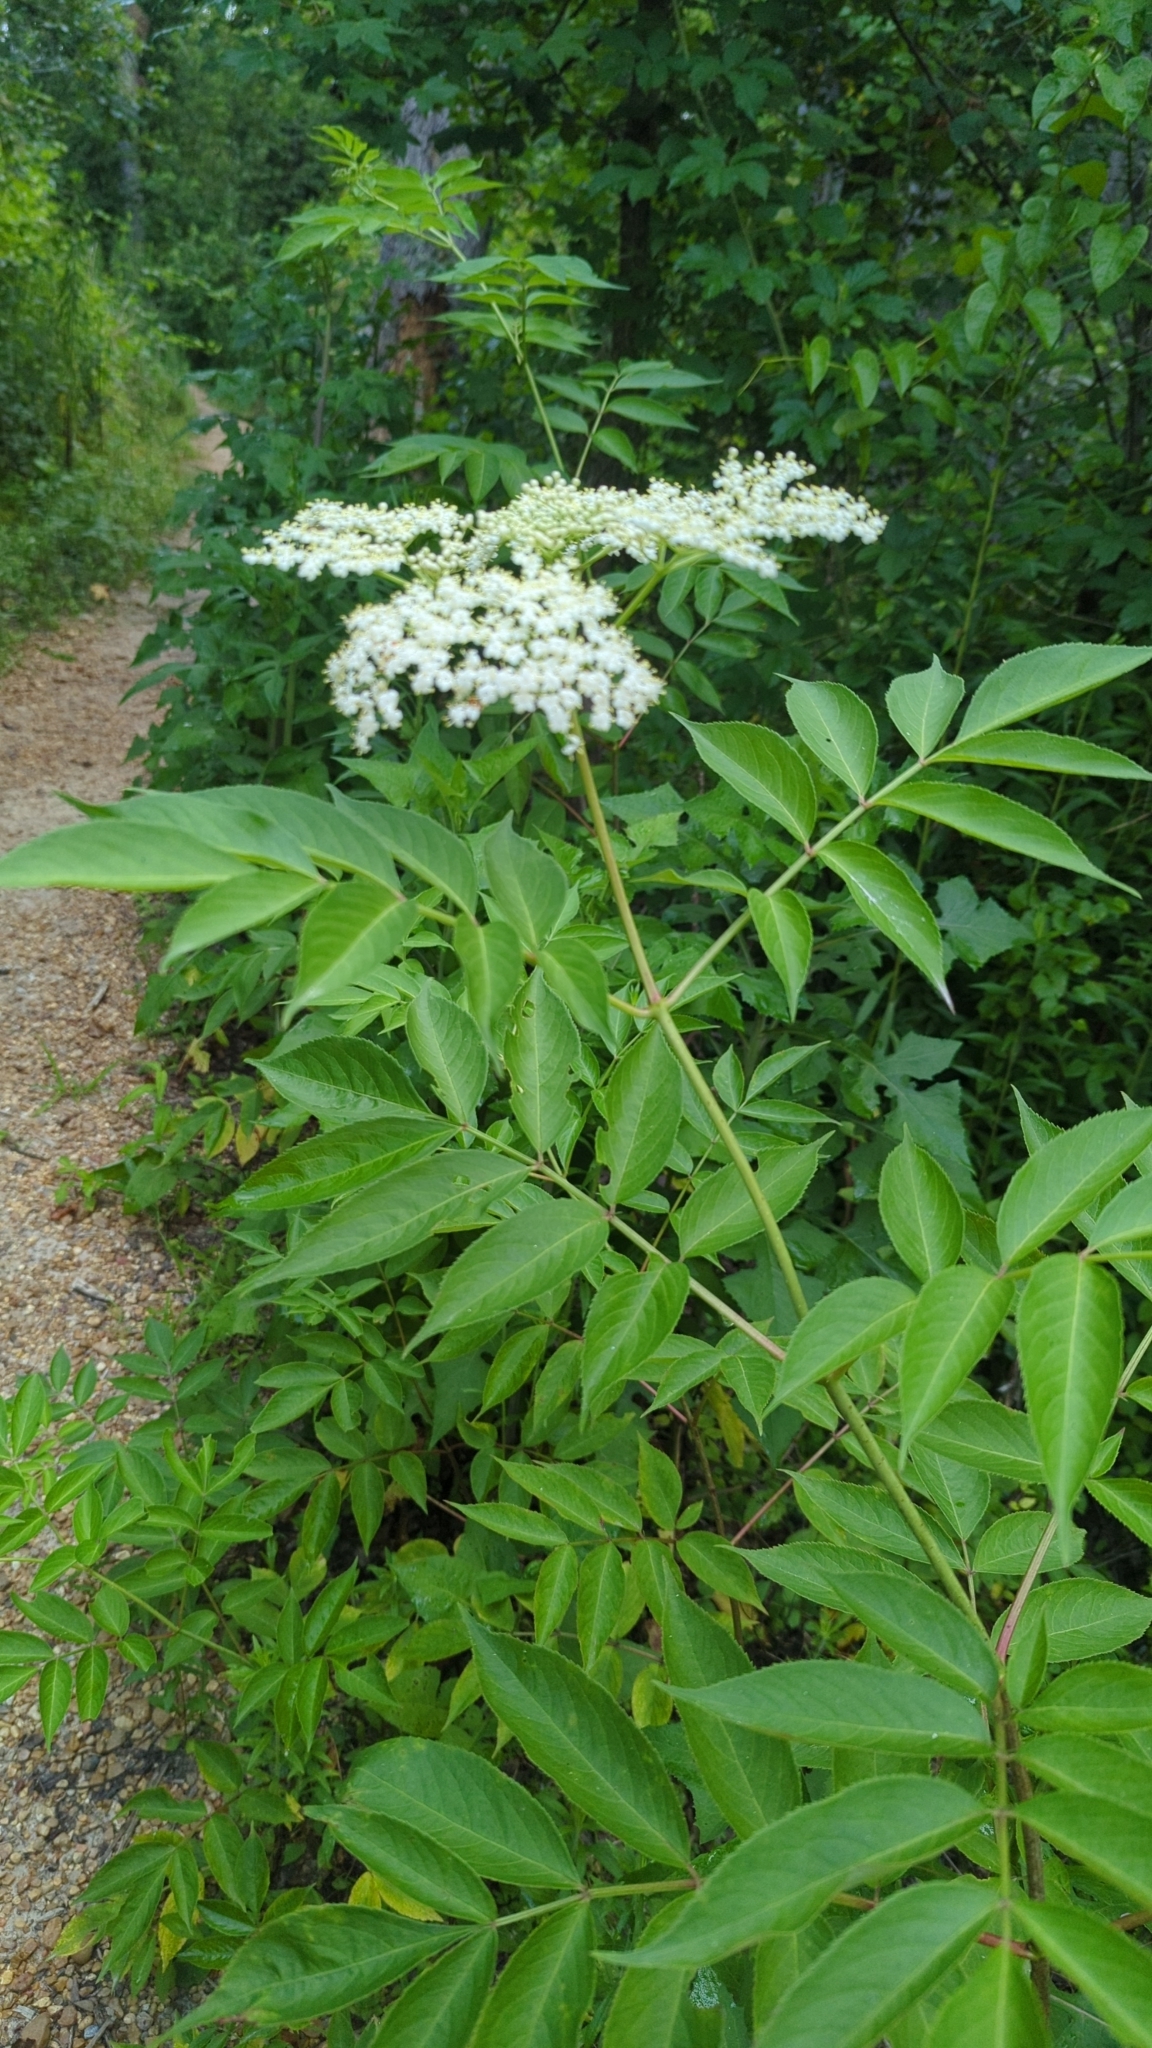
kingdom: Plantae
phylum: Tracheophyta
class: Magnoliopsida
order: Dipsacales
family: Viburnaceae
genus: Sambucus
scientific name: Sambucus canadensis
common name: American elder
